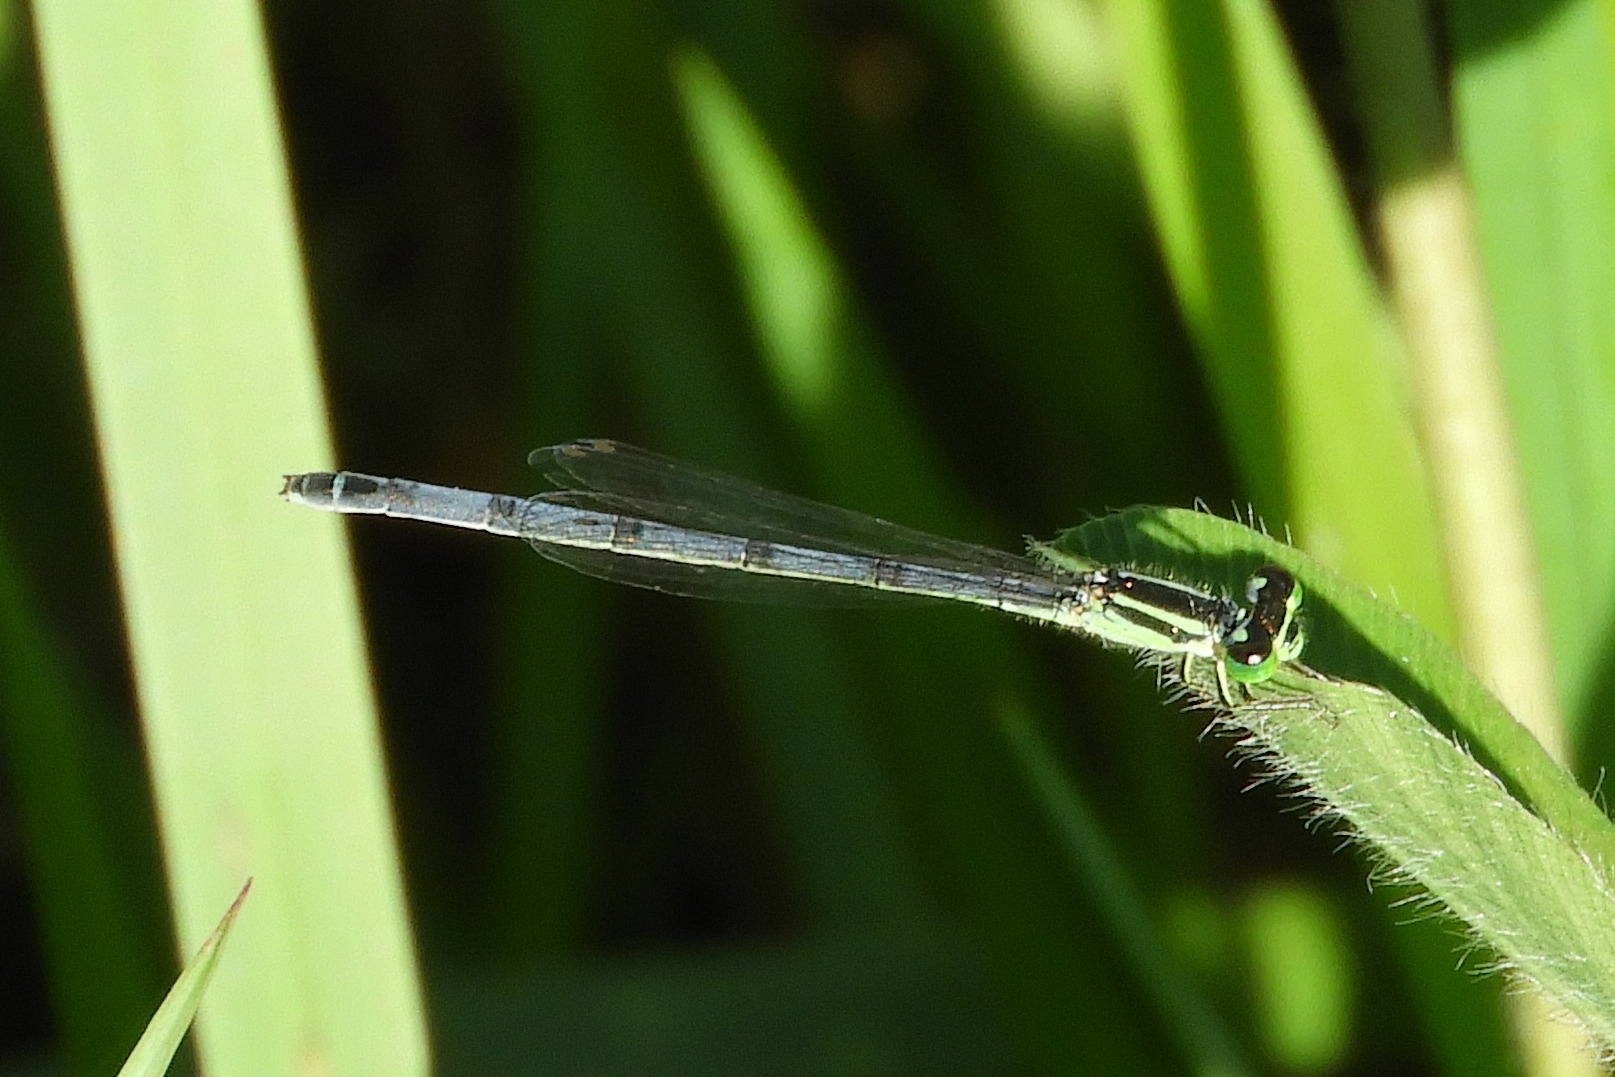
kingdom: Animalia
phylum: Arthropoda
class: Insecta
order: Odonata
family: Coenagrionidae
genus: Ischnura
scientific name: Ischnura verticalis
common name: Eastern forktail
